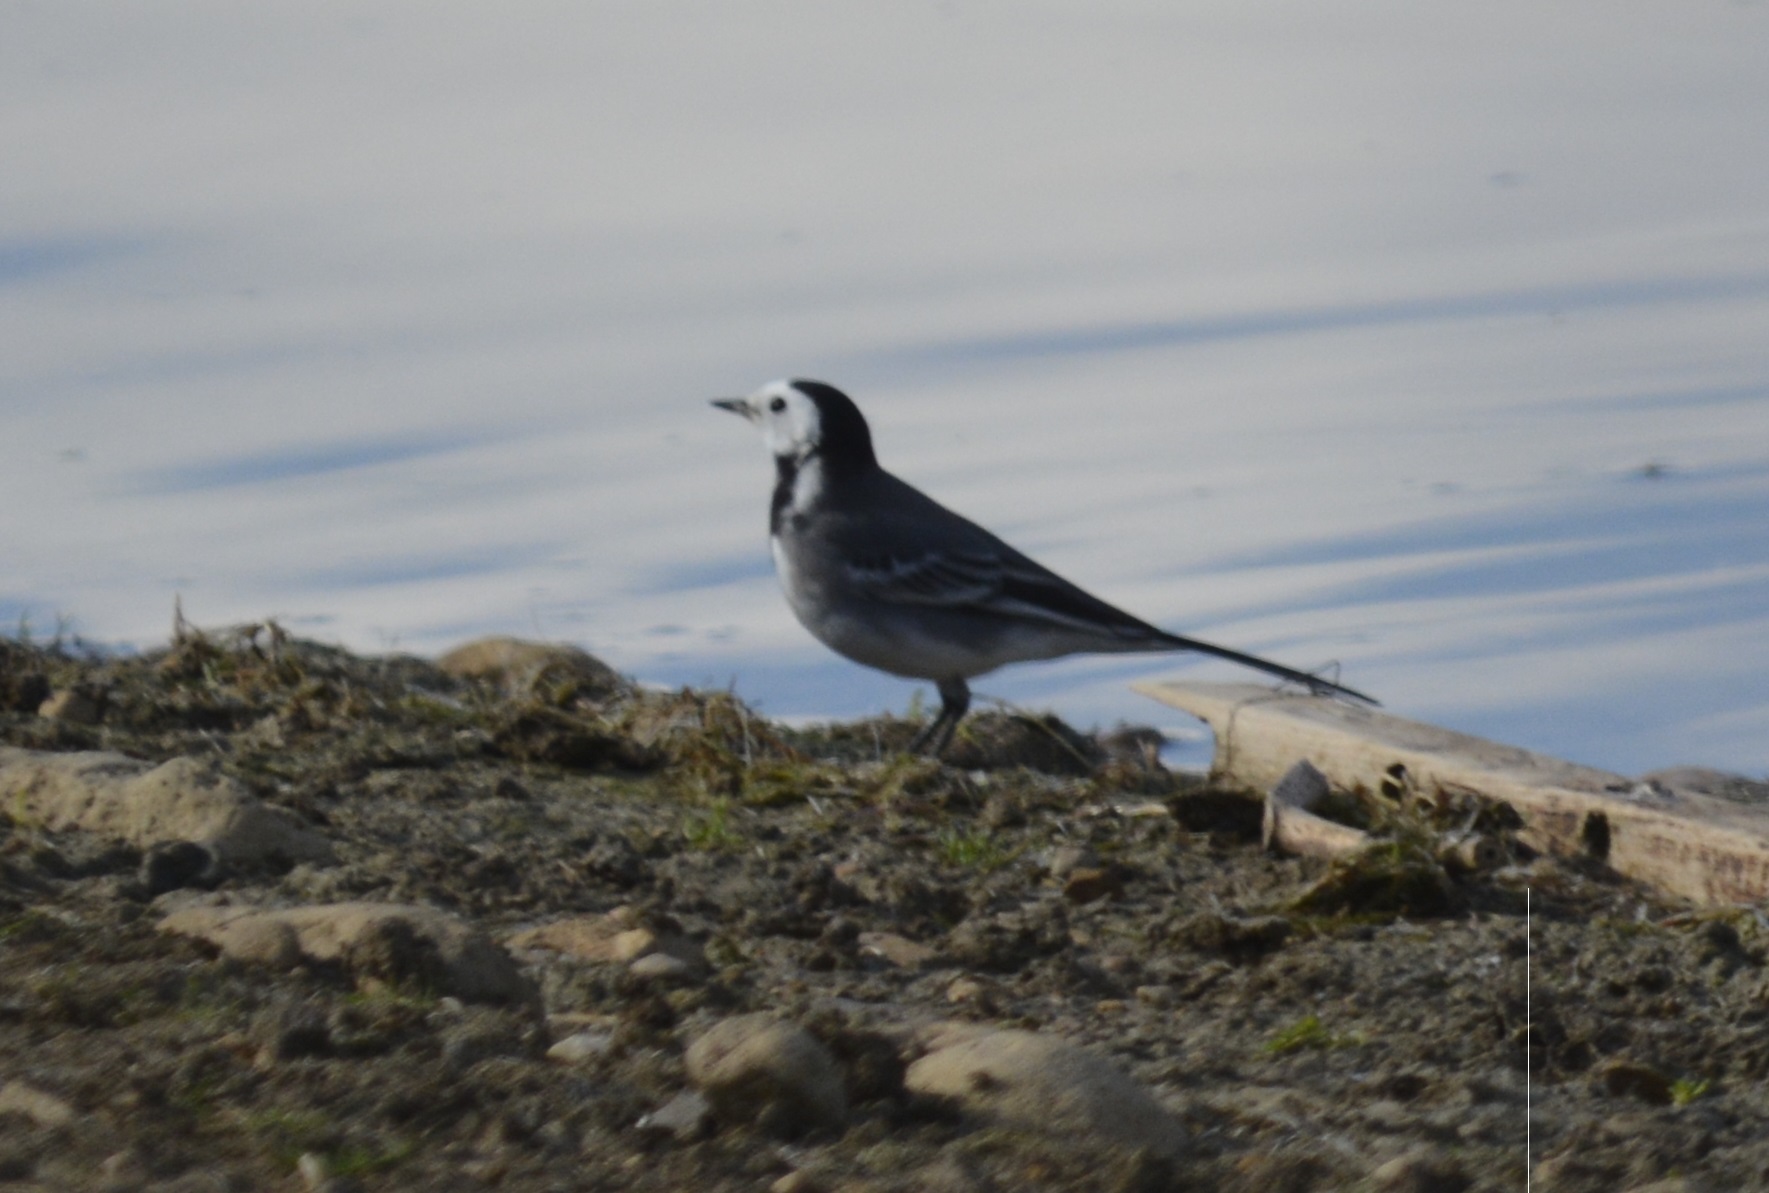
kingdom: Animalia
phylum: Chordata
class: Aves
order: Passeriformes
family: Motacillidae
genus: Motacilla
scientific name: Motacilla alba
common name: White wagtail
